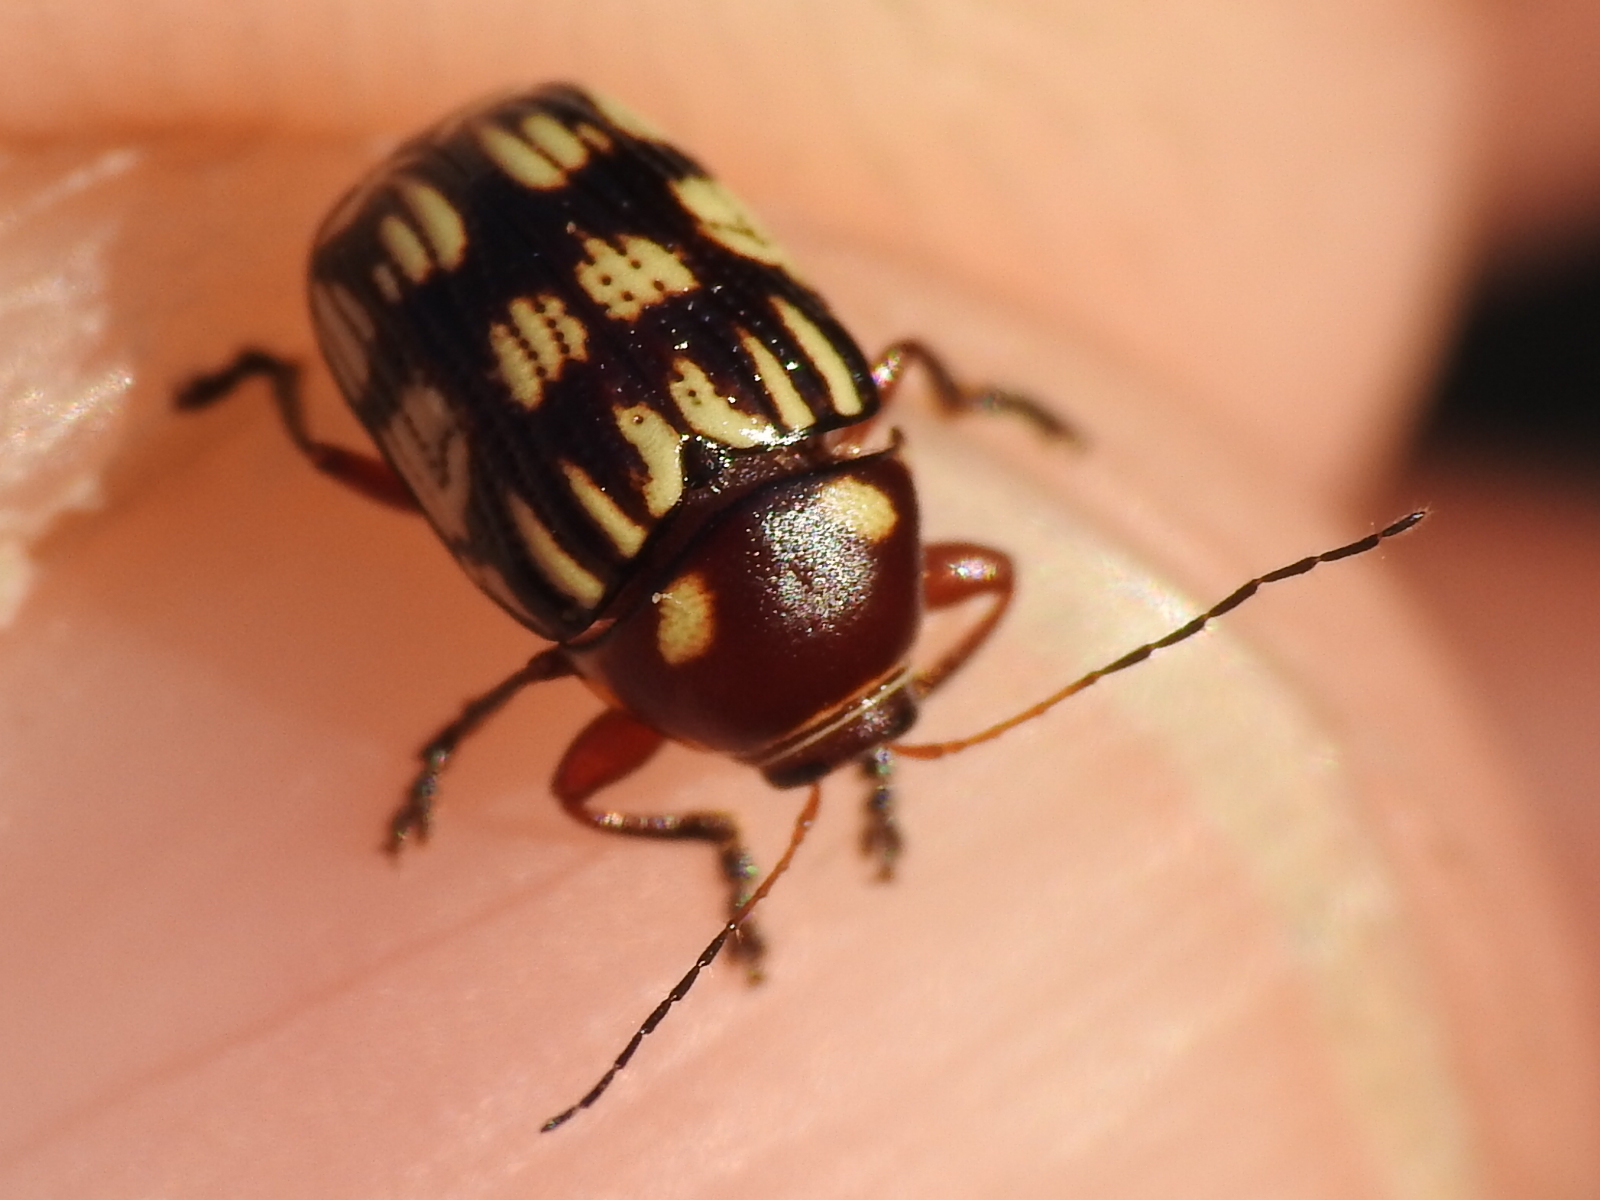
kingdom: Animalia
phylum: Arthropoda
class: Insecta
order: Coleoptera
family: Chrysomelidae
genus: Bassareus
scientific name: Bassareus brunnipes
